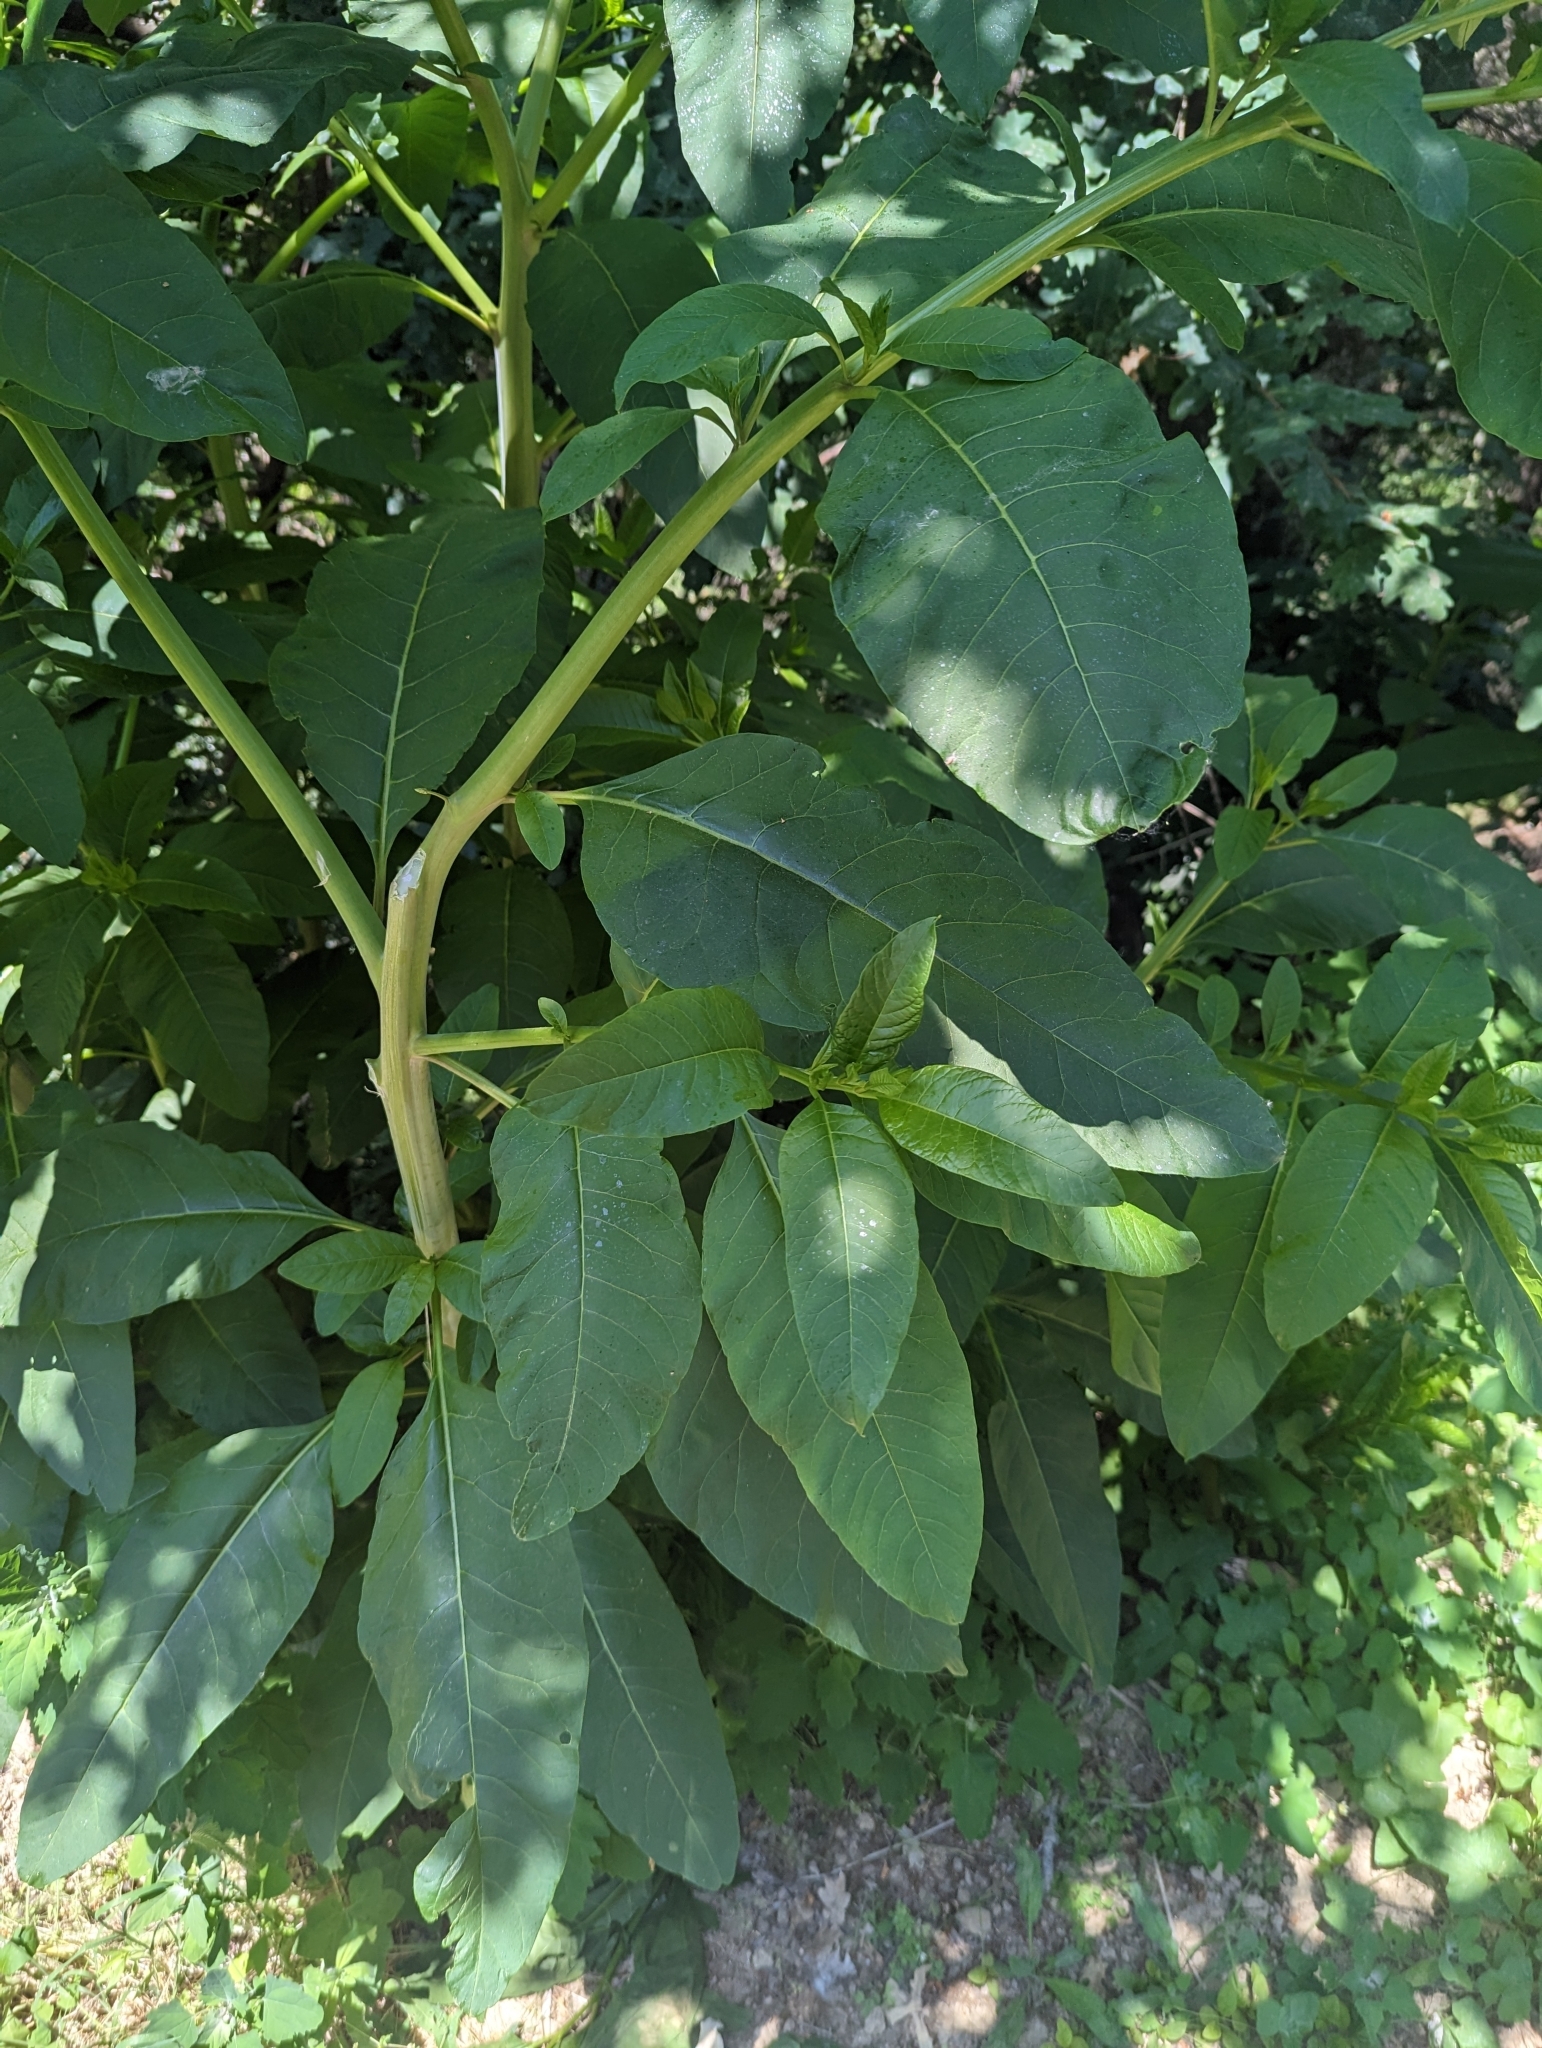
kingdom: Plantae
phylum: Tracheophyta
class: Magnoliopsida
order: Caryophyllales
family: Phytolaccaceae
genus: Phytolacca
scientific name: Phytolacca americana
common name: American pokeweed
